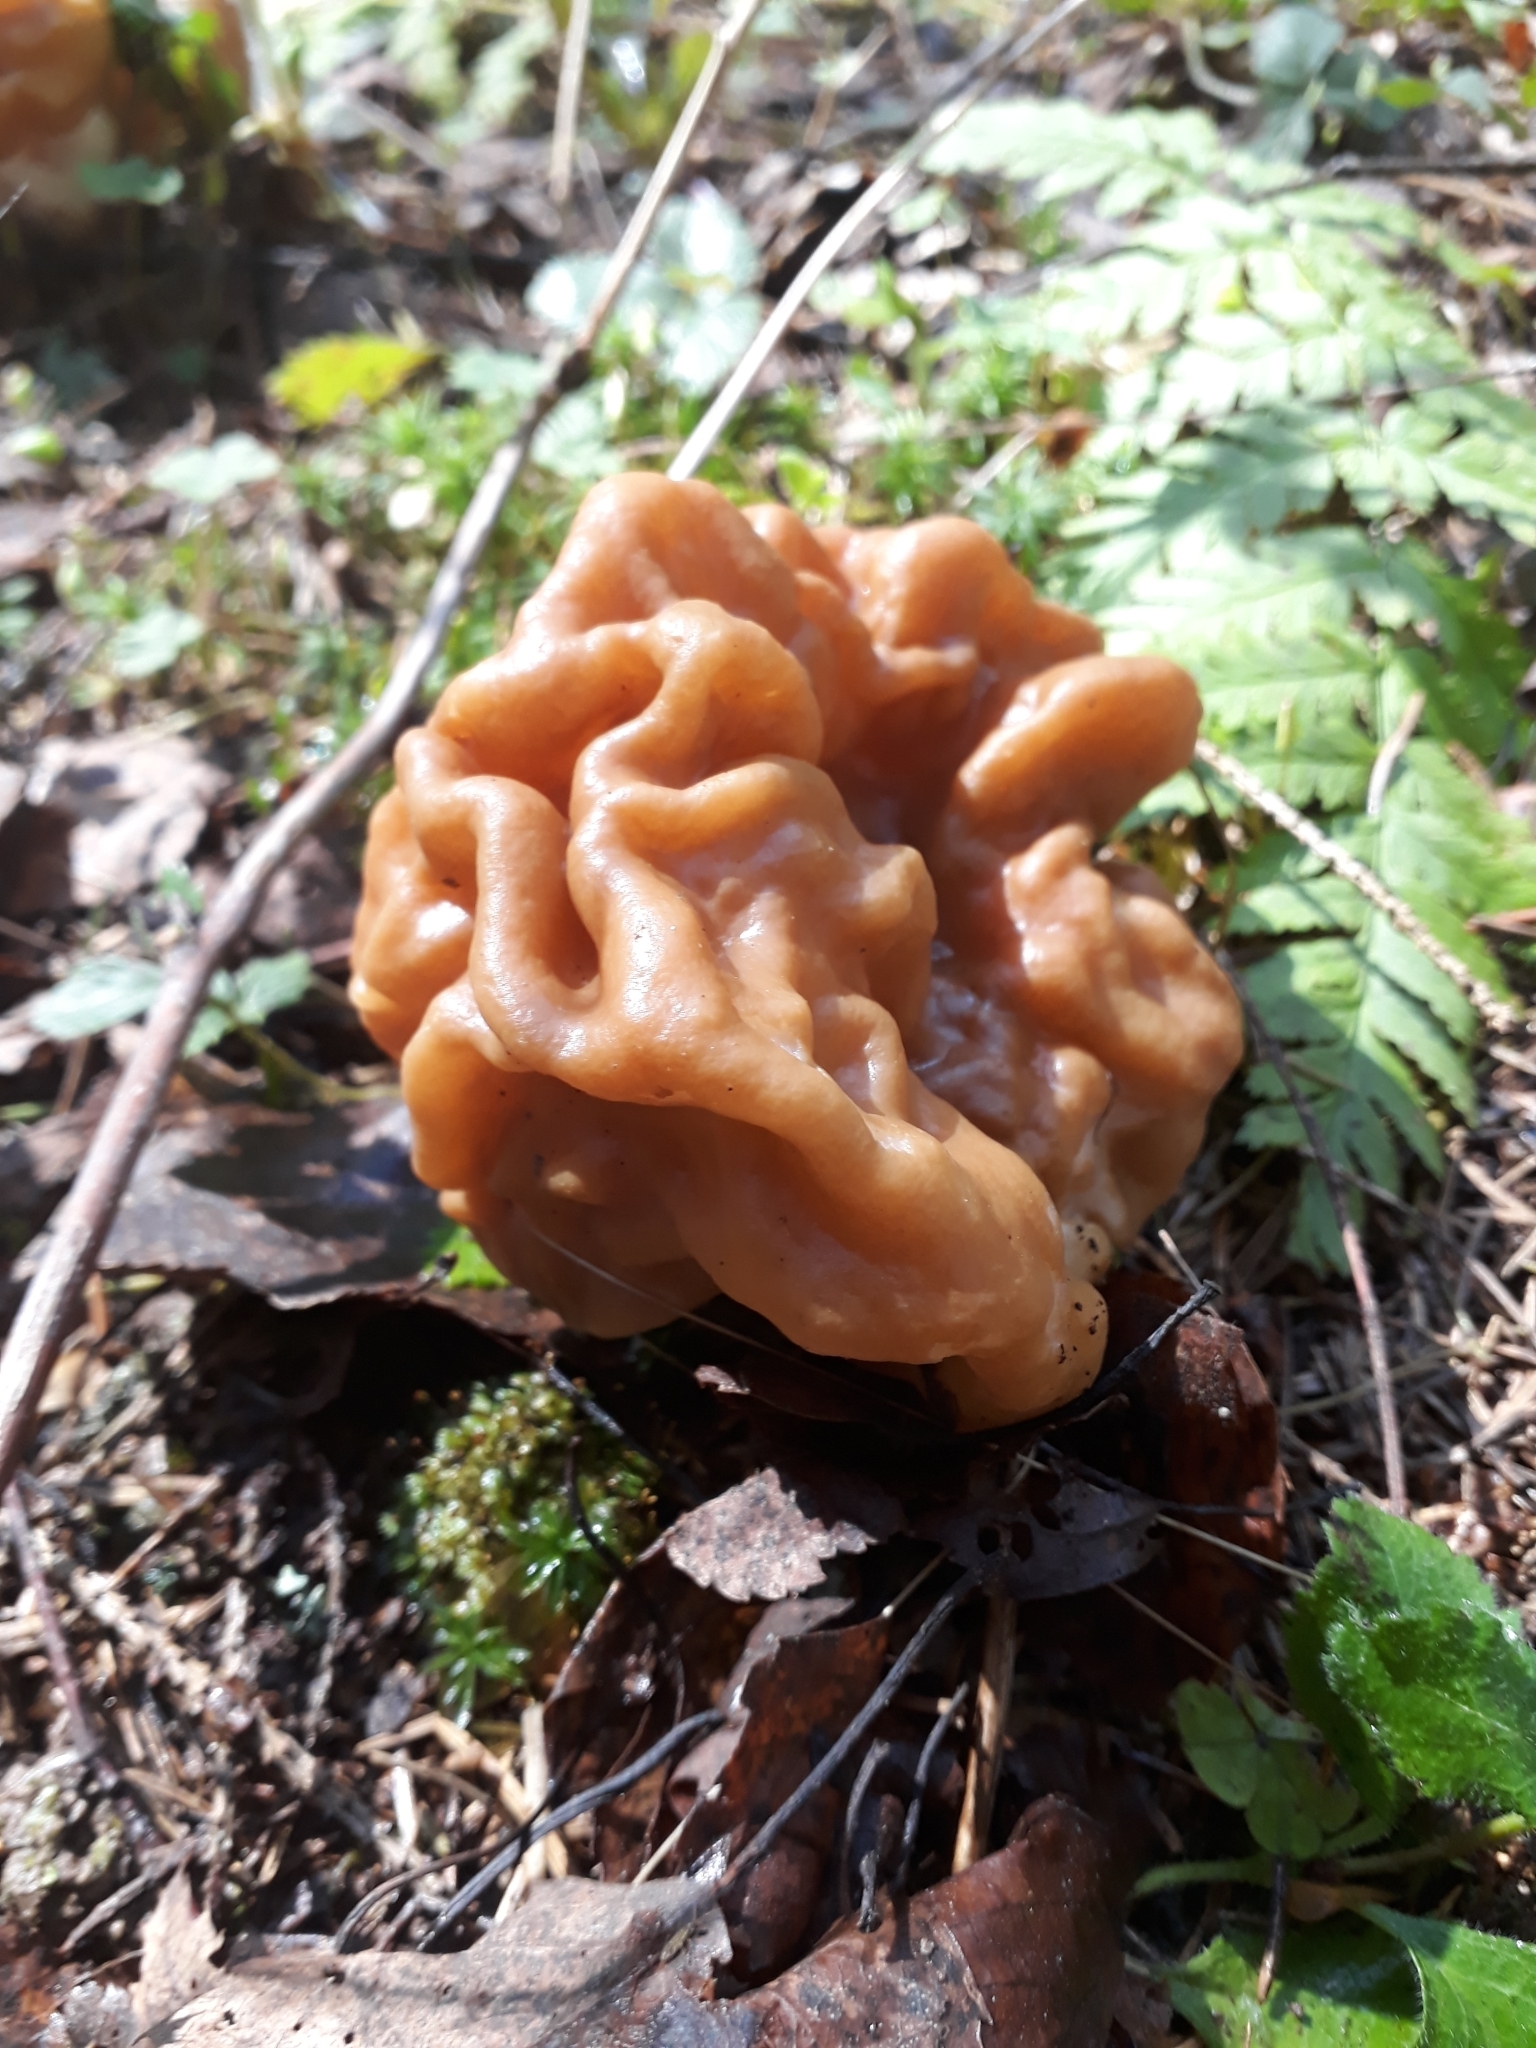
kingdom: Fungi
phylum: Ascomycota
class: Pezizomycetes
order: Pezizales
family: Discinaceae
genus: Gyromitra
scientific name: Gyromitra gigas
